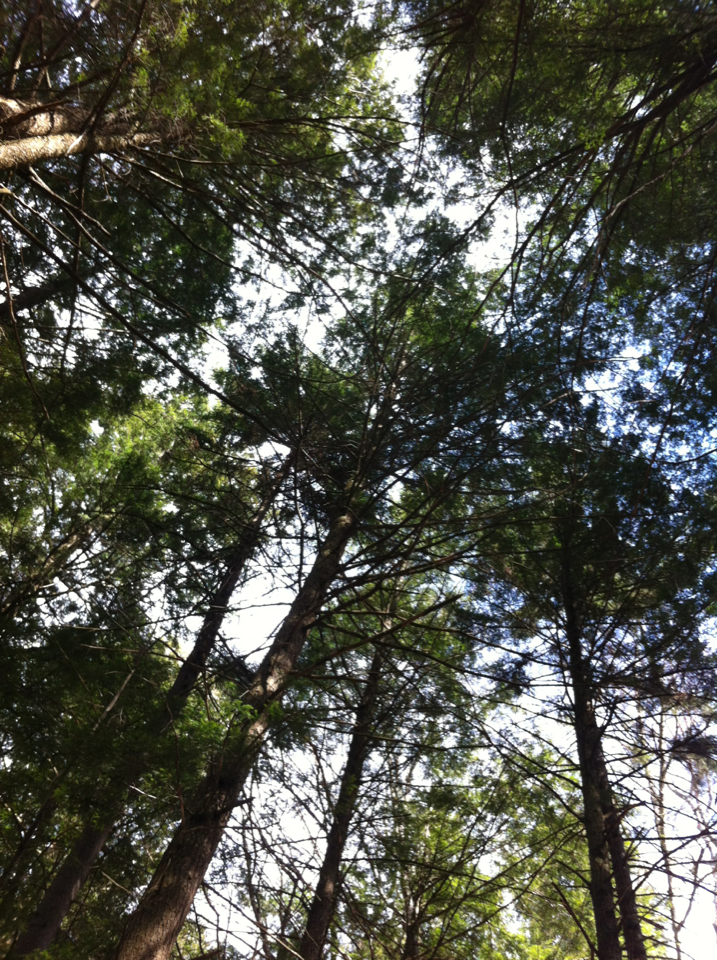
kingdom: Plantae
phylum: Tracheophyta
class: Pinopsida
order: Pinales
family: Pinaceae
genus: Tsuga
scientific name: Tsuga canadensis
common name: Eastern hemlock
